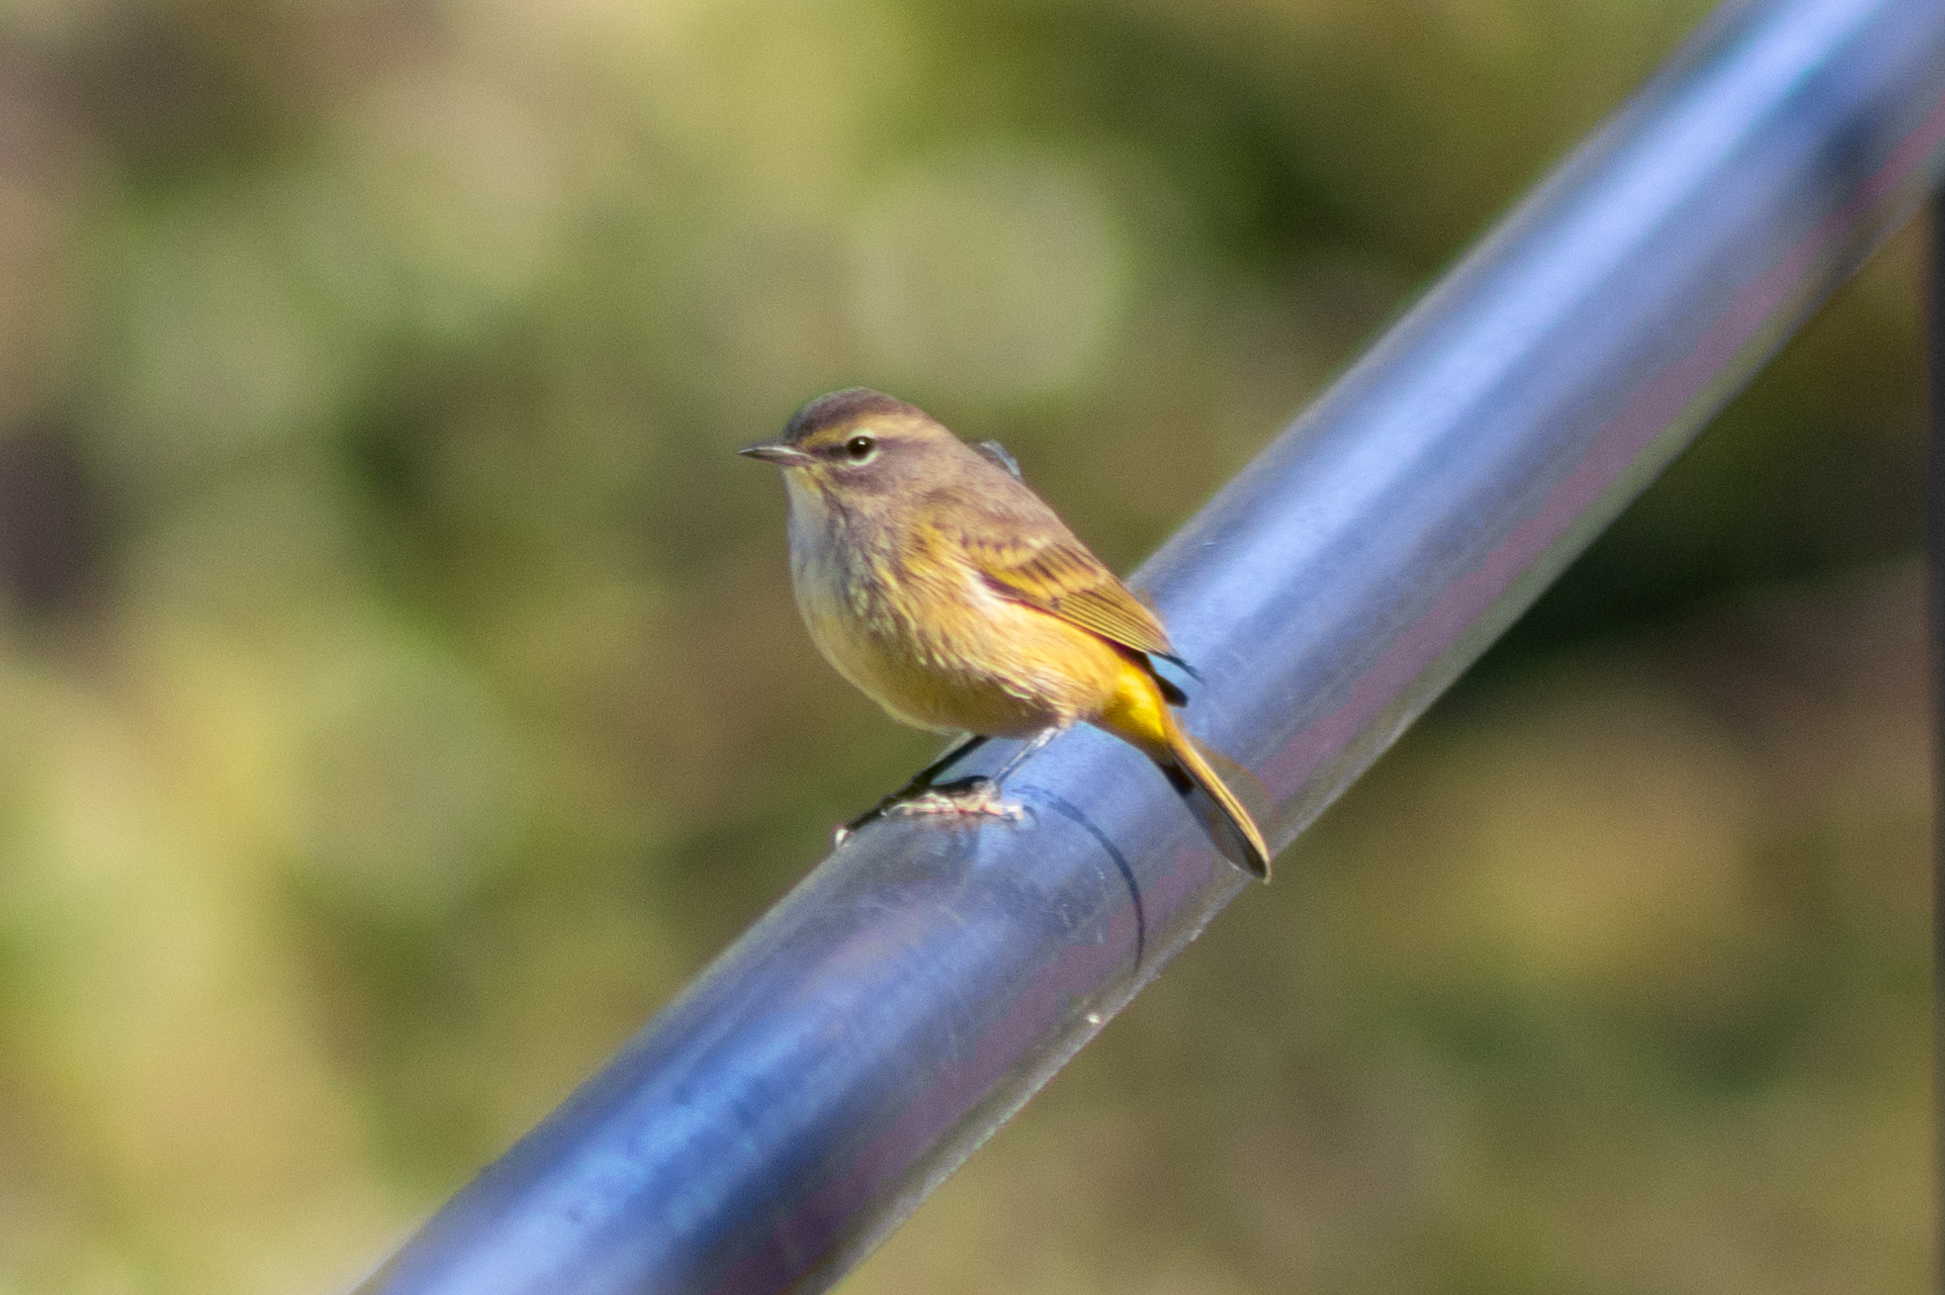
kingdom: Animalia
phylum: Chordata
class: Aves
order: Passeriformes
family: Parulidae
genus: Setophaga
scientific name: Setophaga palmarum
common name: Palm warbler
